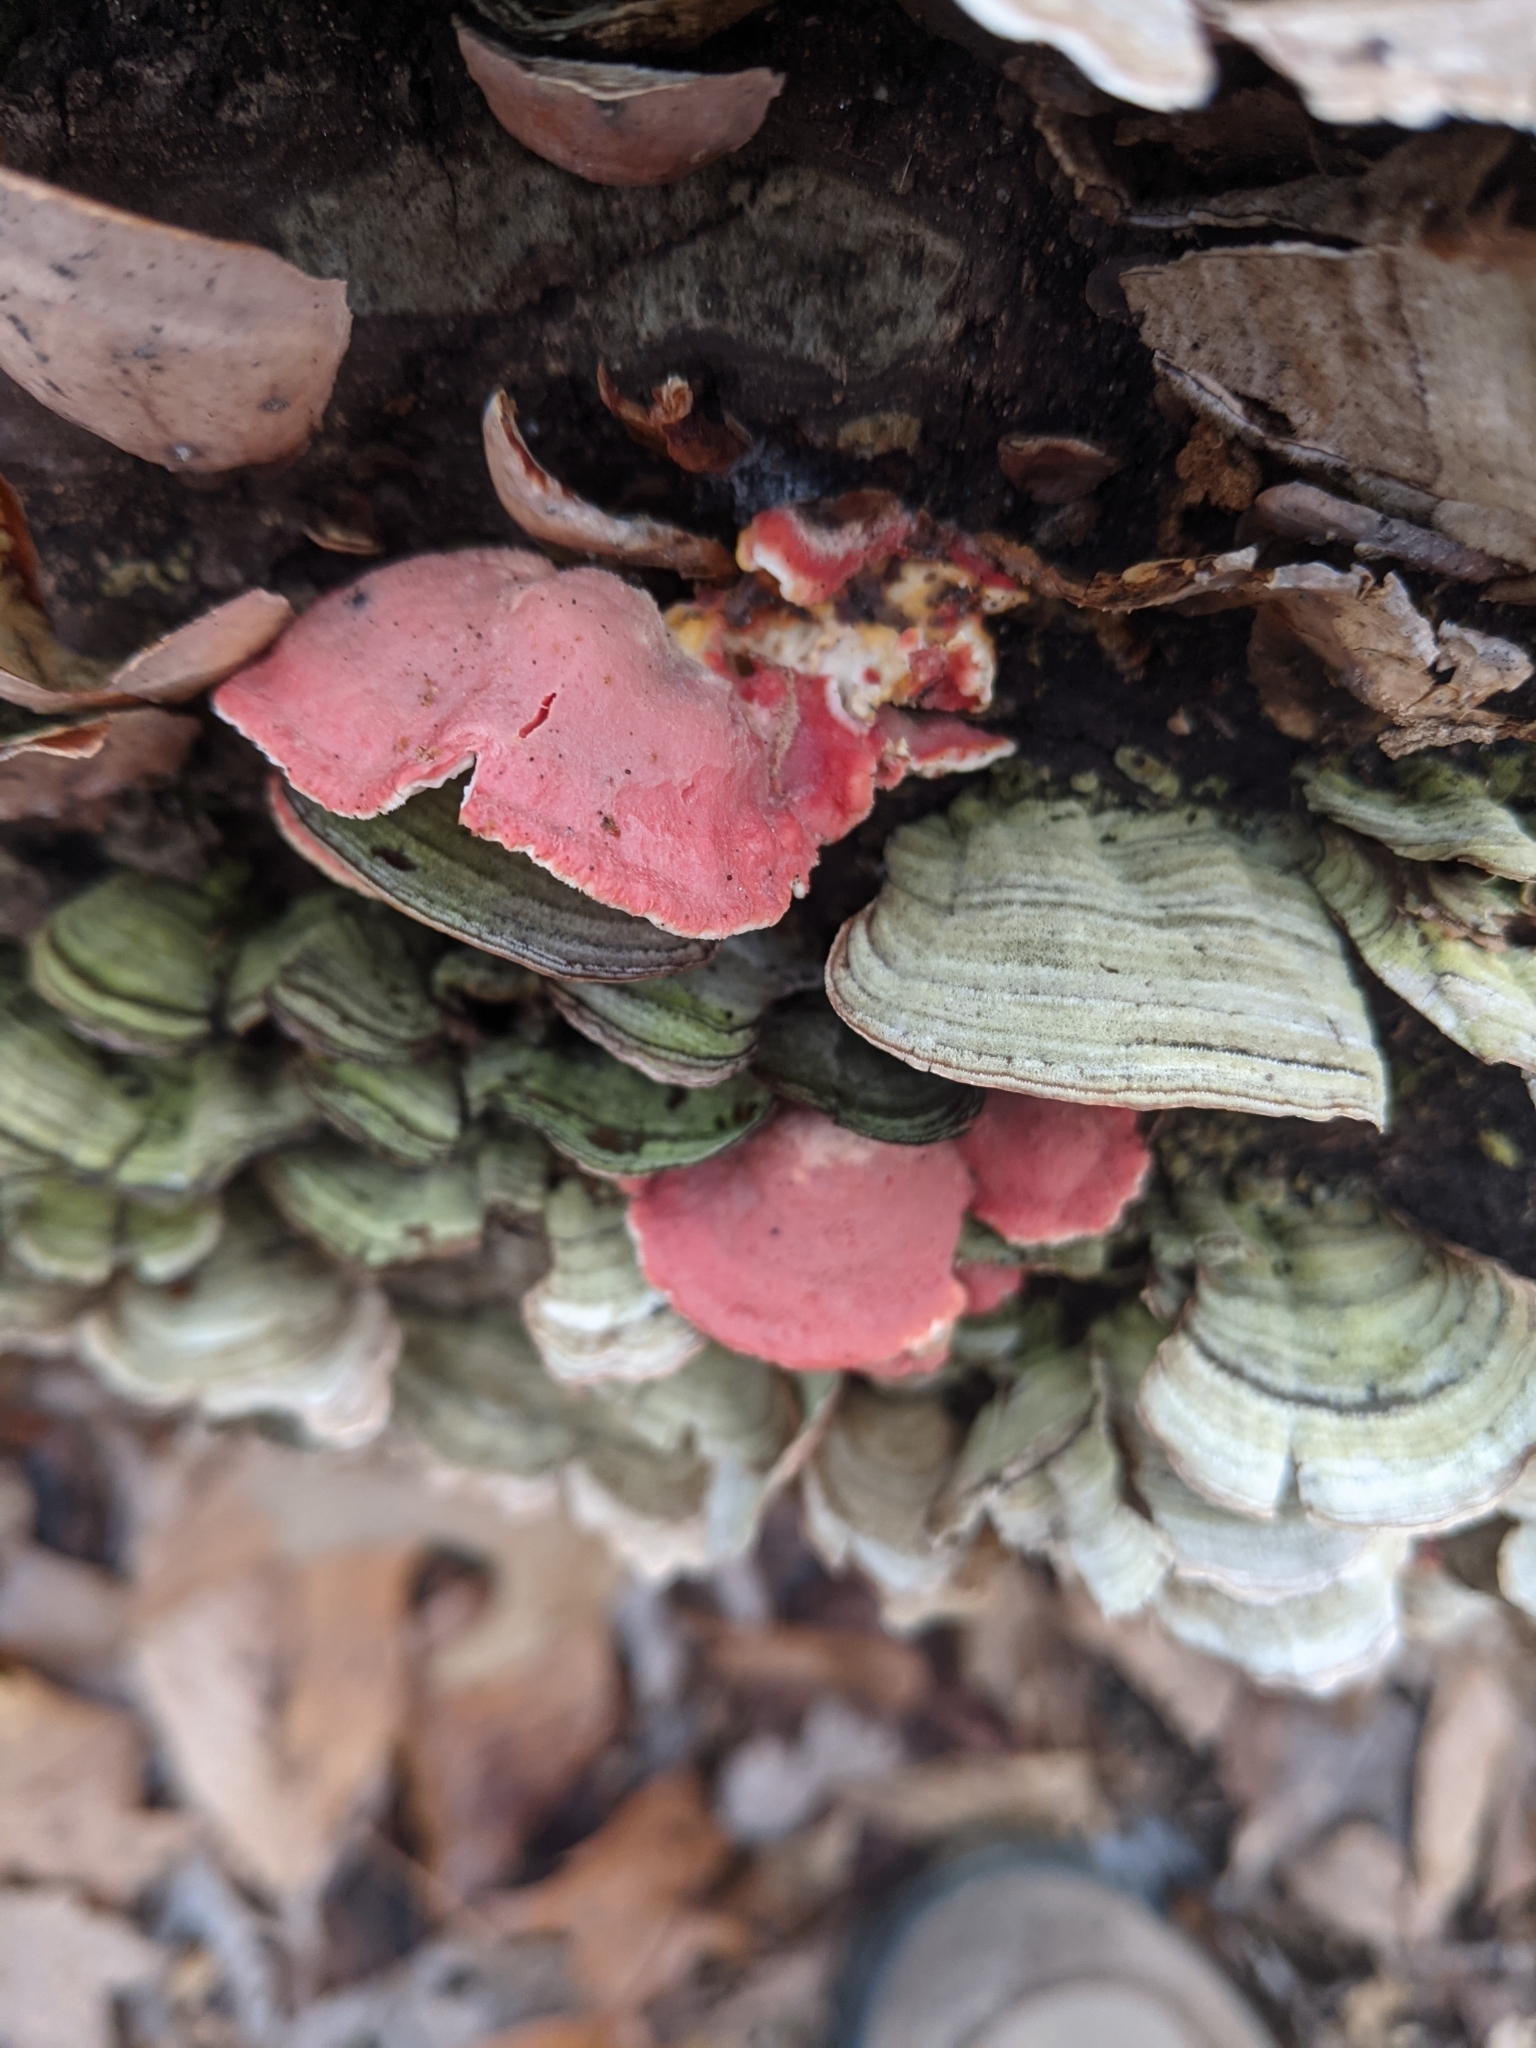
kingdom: Fungi
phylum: Basidiomycota
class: Agaricomycetes
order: Polyporales
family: Irpicaceae
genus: Byssomerulius
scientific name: Byssomerulius incarnatus
